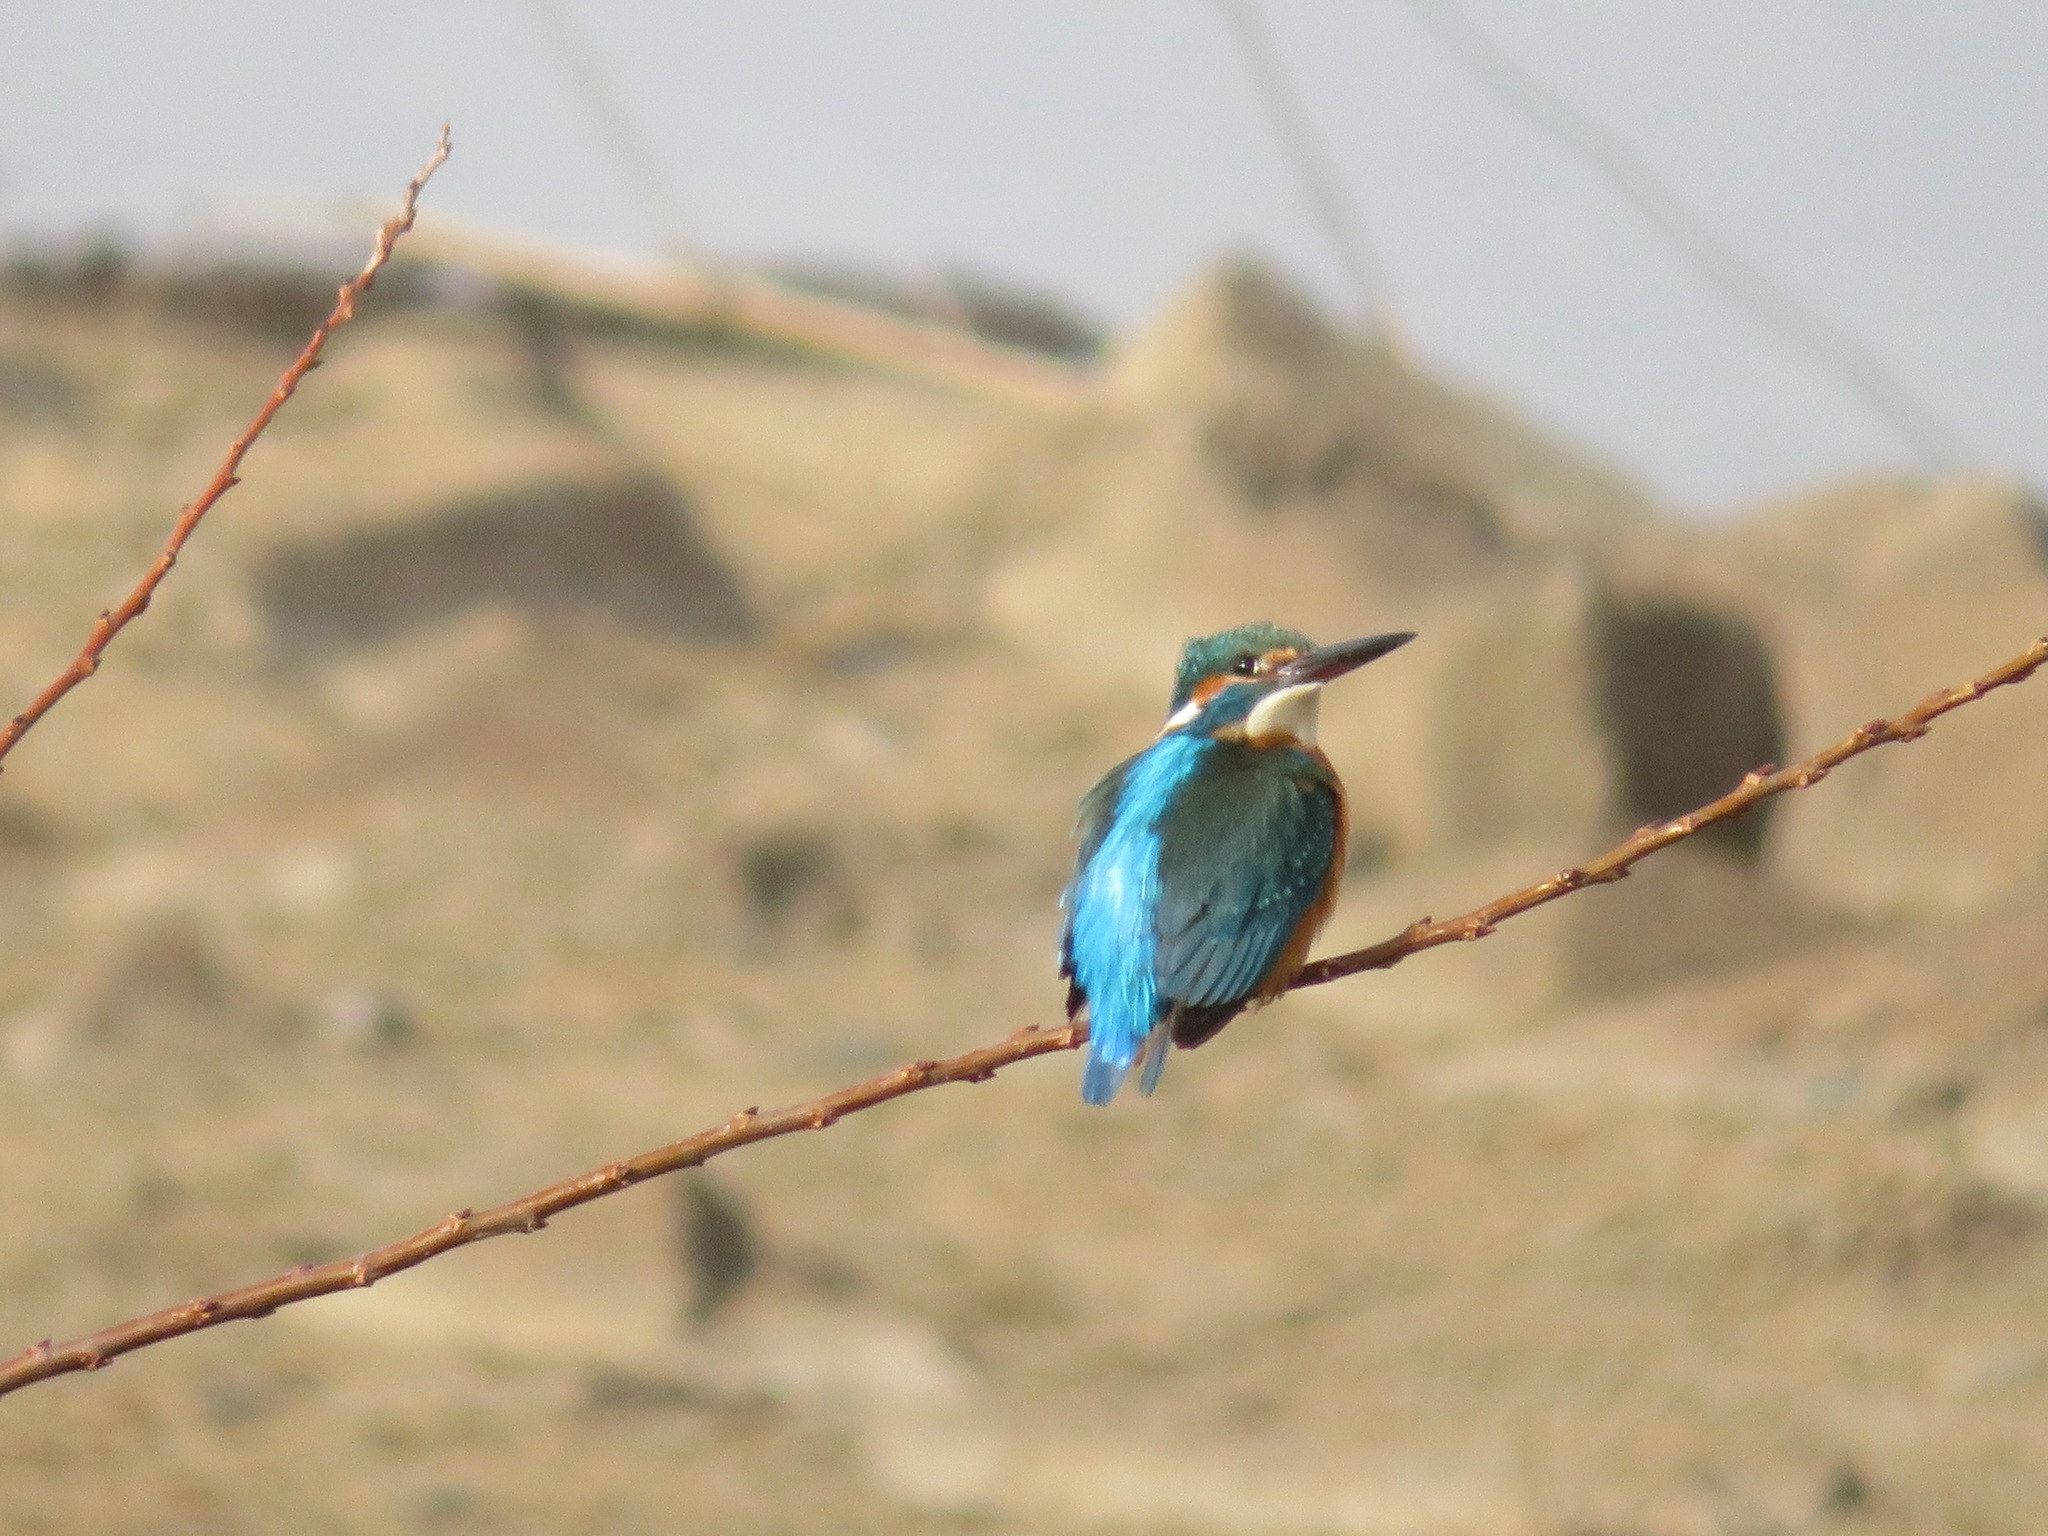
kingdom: Animalia
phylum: Chordata
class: Aves
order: Coraciiformes
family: Alcedinidae
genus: Alcedo
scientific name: Alcedo atthis
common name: Common kingfisher
